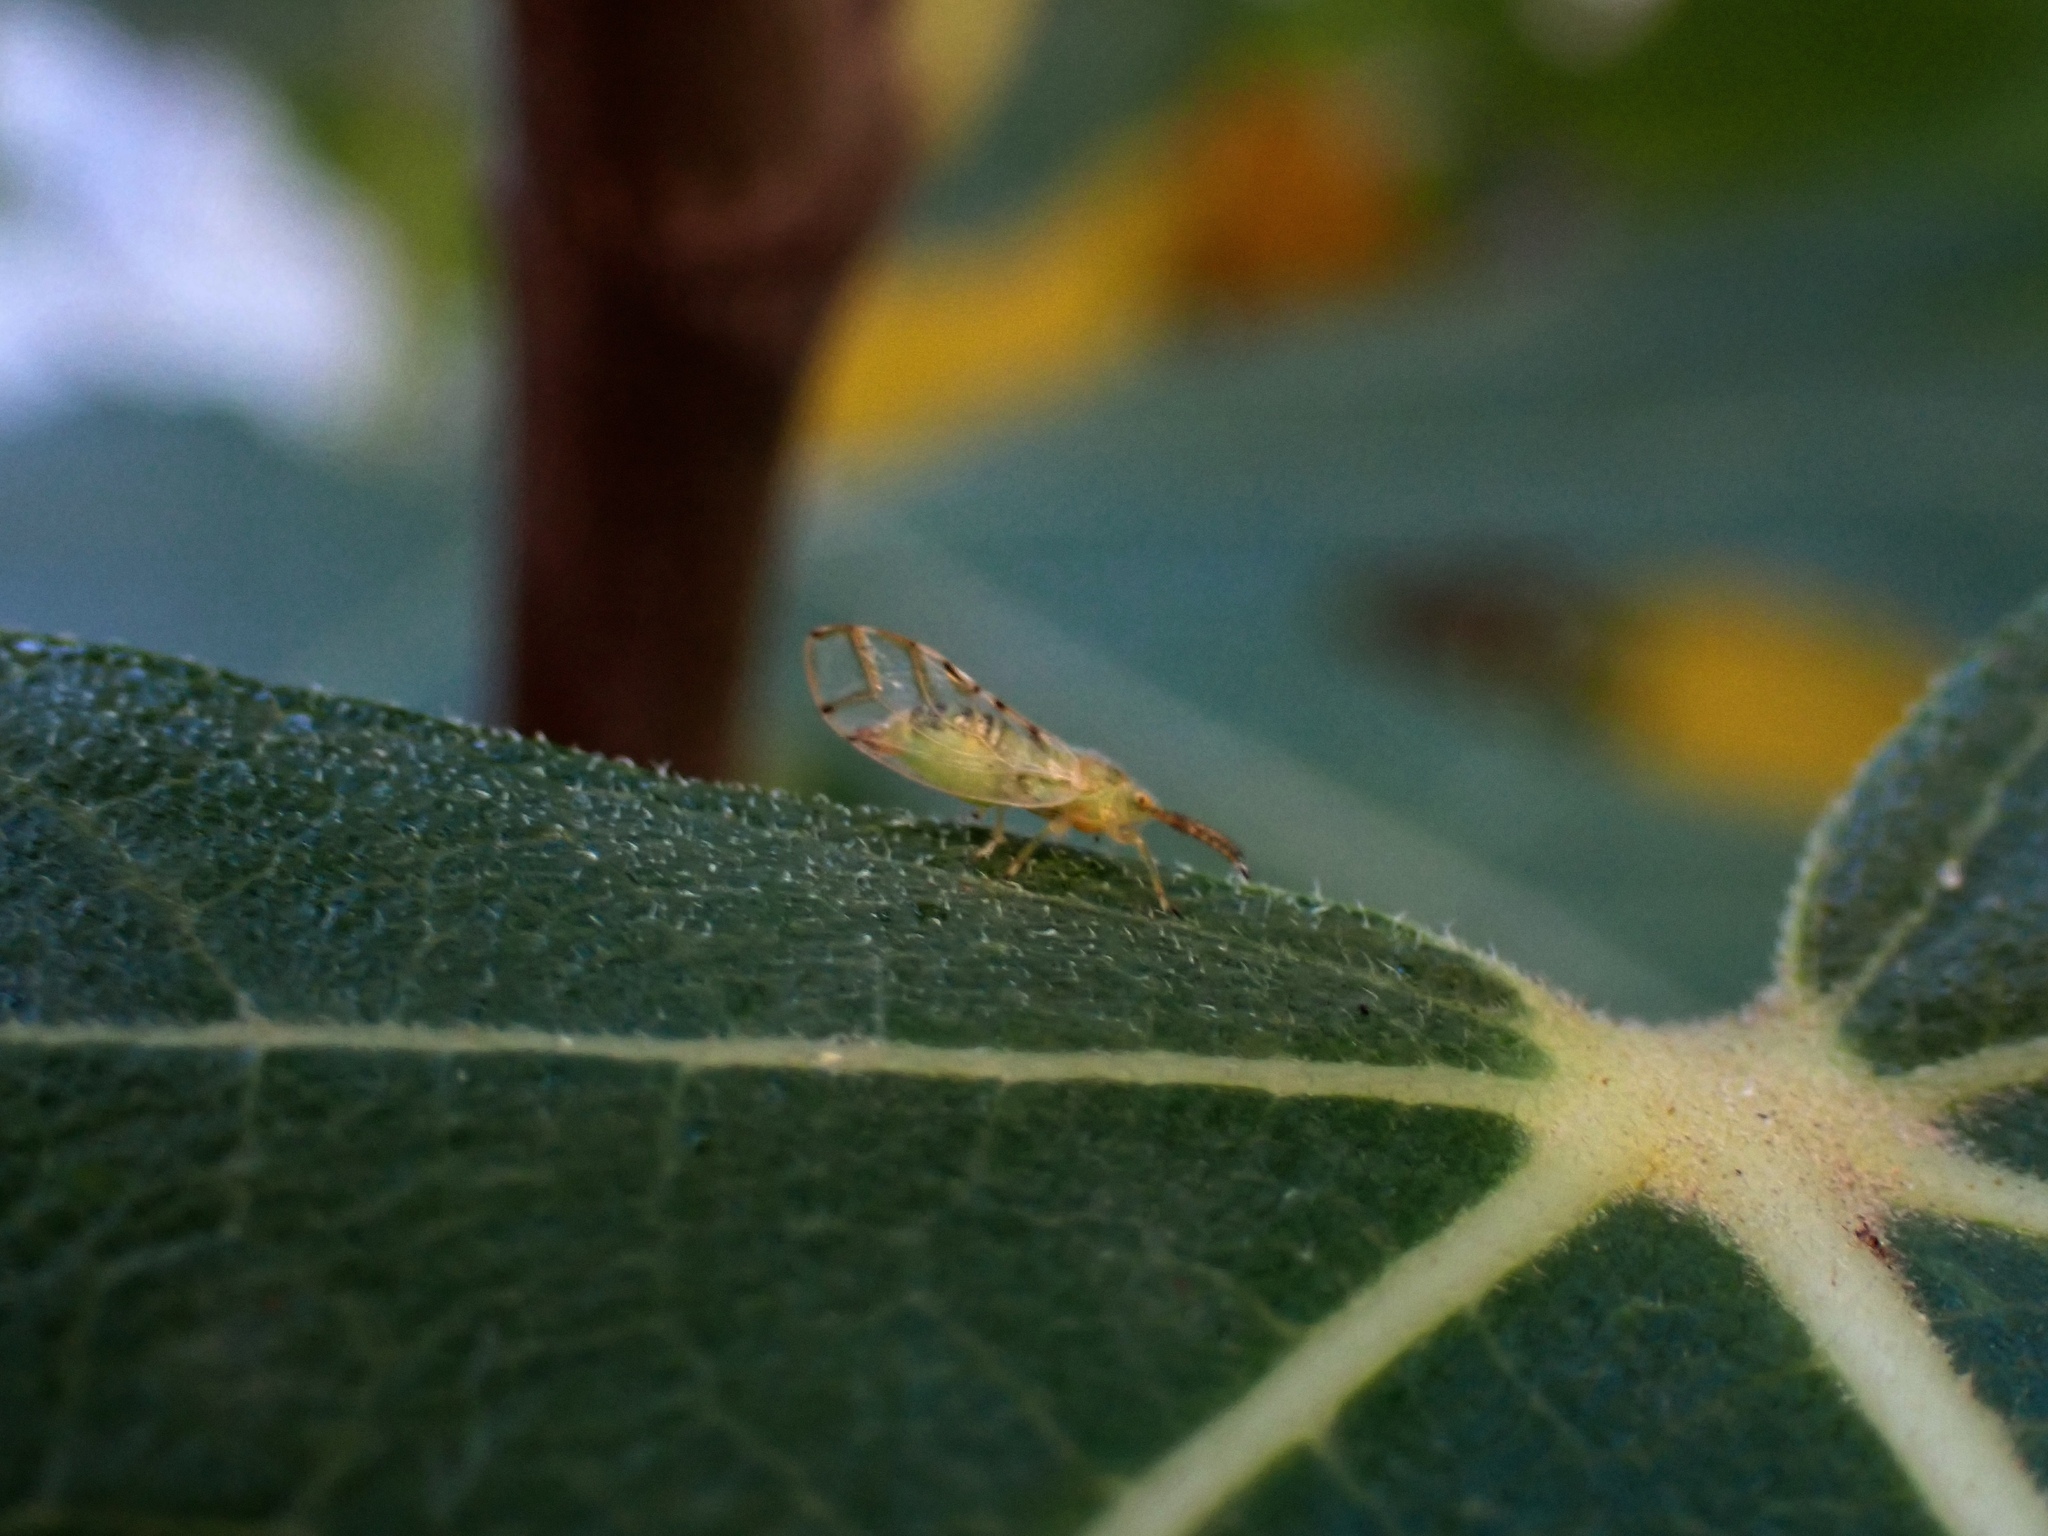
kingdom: Animalia
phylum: Arthropoda
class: Insecta
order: Hemiptera
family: Homotomidae
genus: Homotoma
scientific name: Homotoma ficus
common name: Fig psillid
